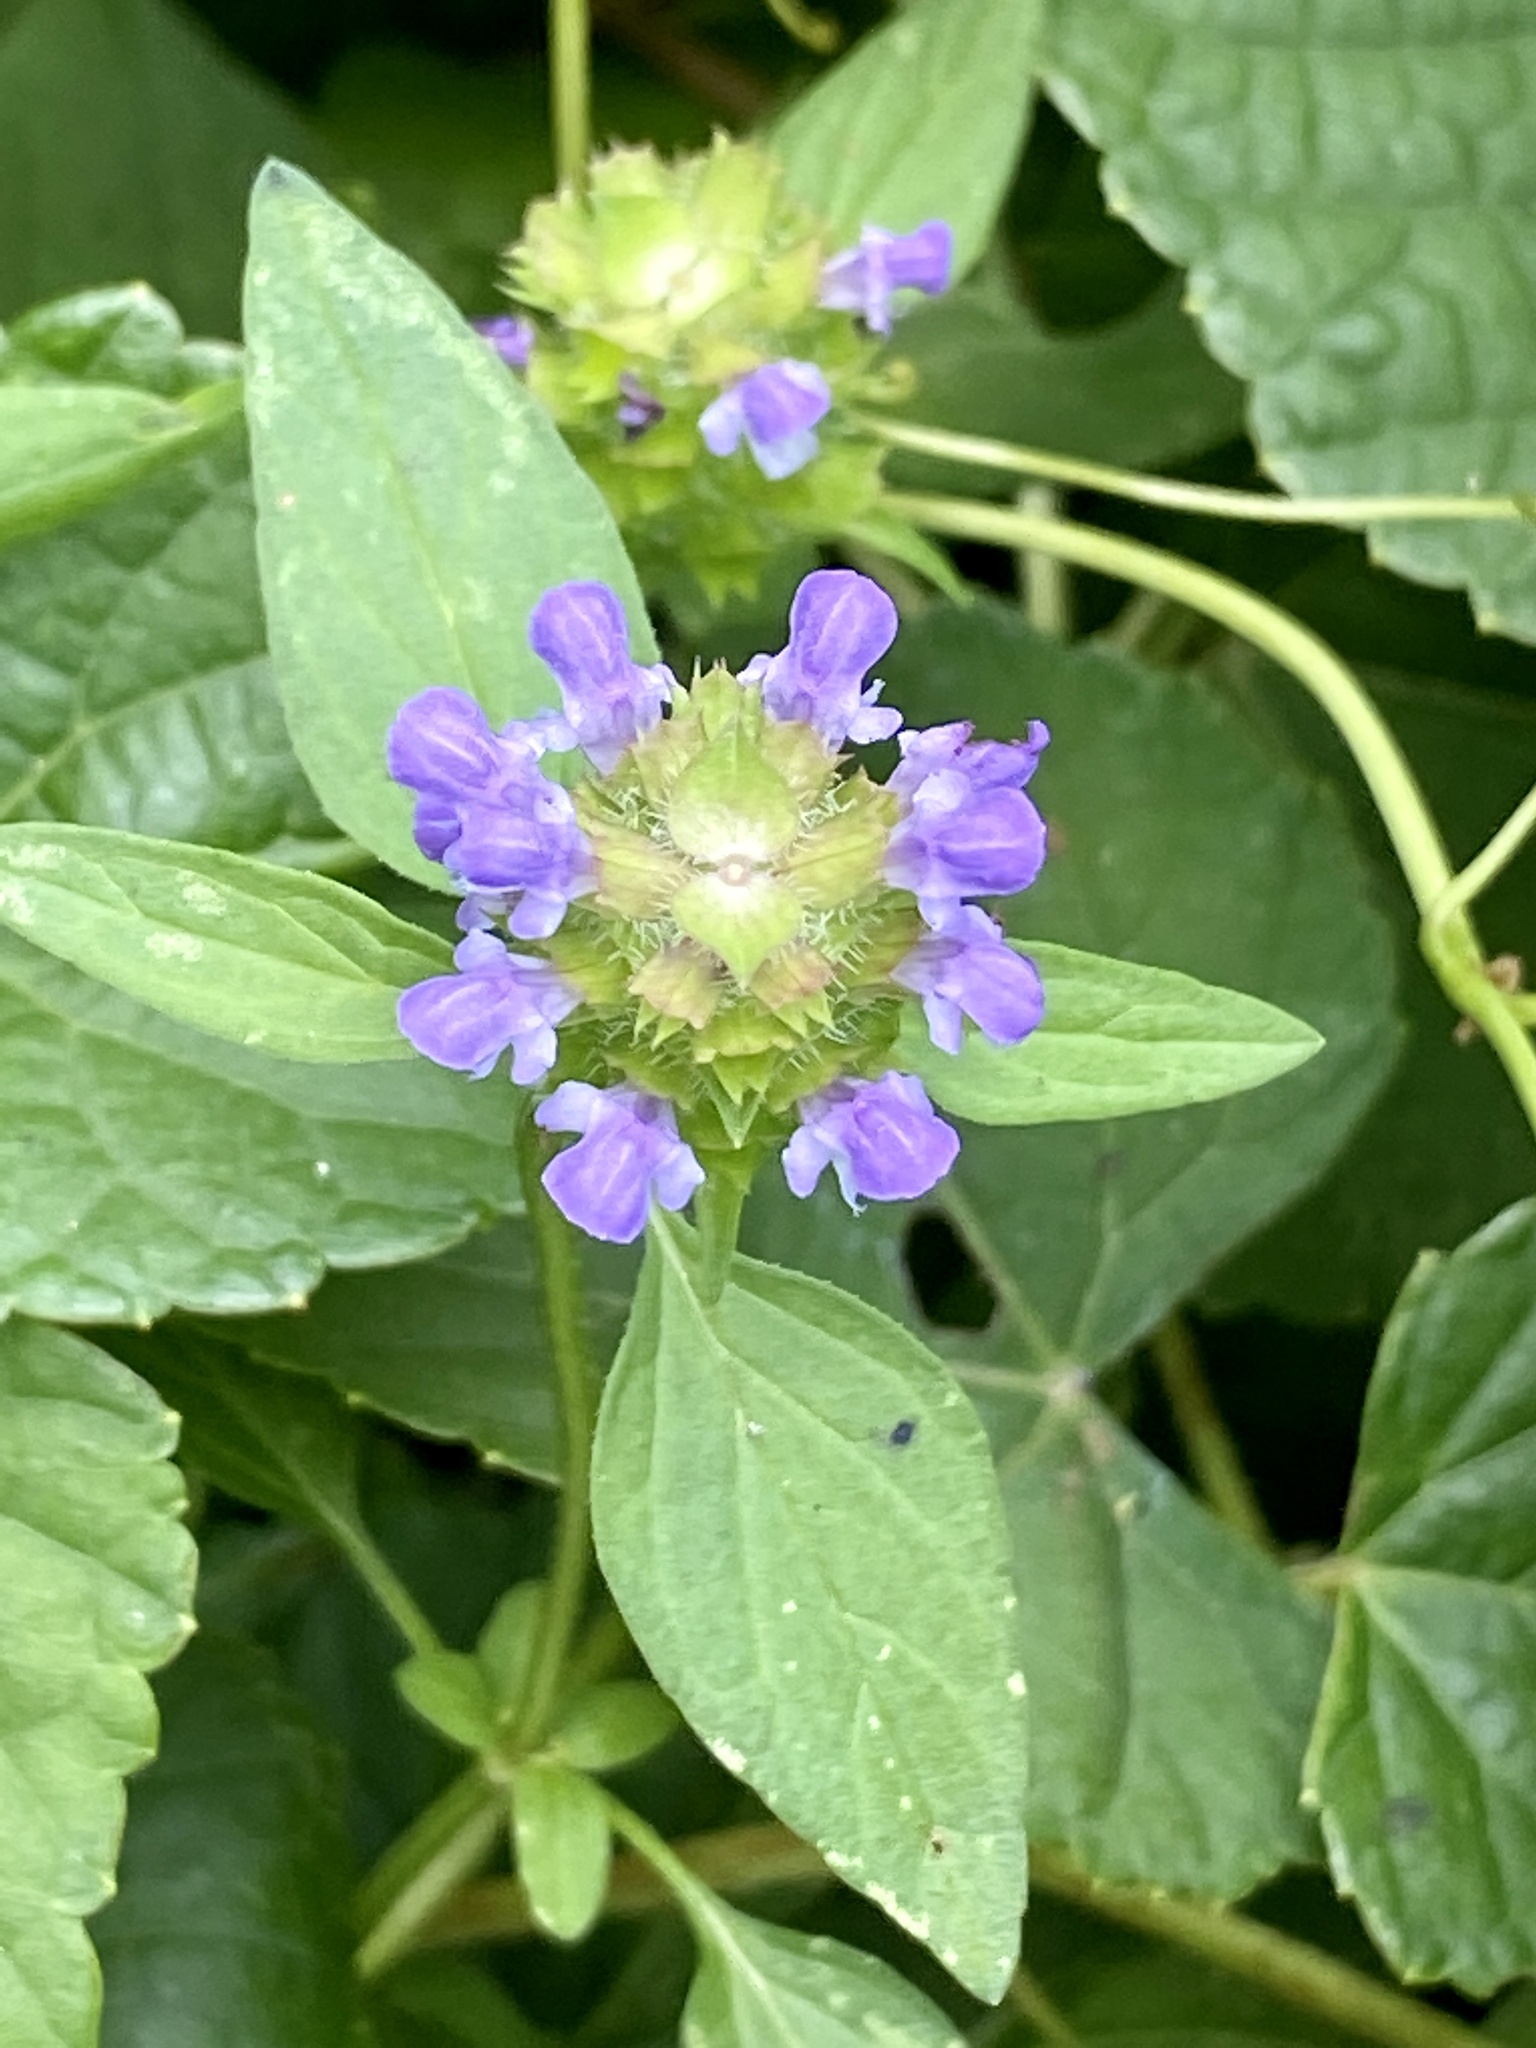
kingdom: Plantae
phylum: Tracheophyta
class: Magnoliopsida
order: Lamiales
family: Lamiaceae
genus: Prunella
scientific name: Prunella vulgaris
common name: Heal-all
